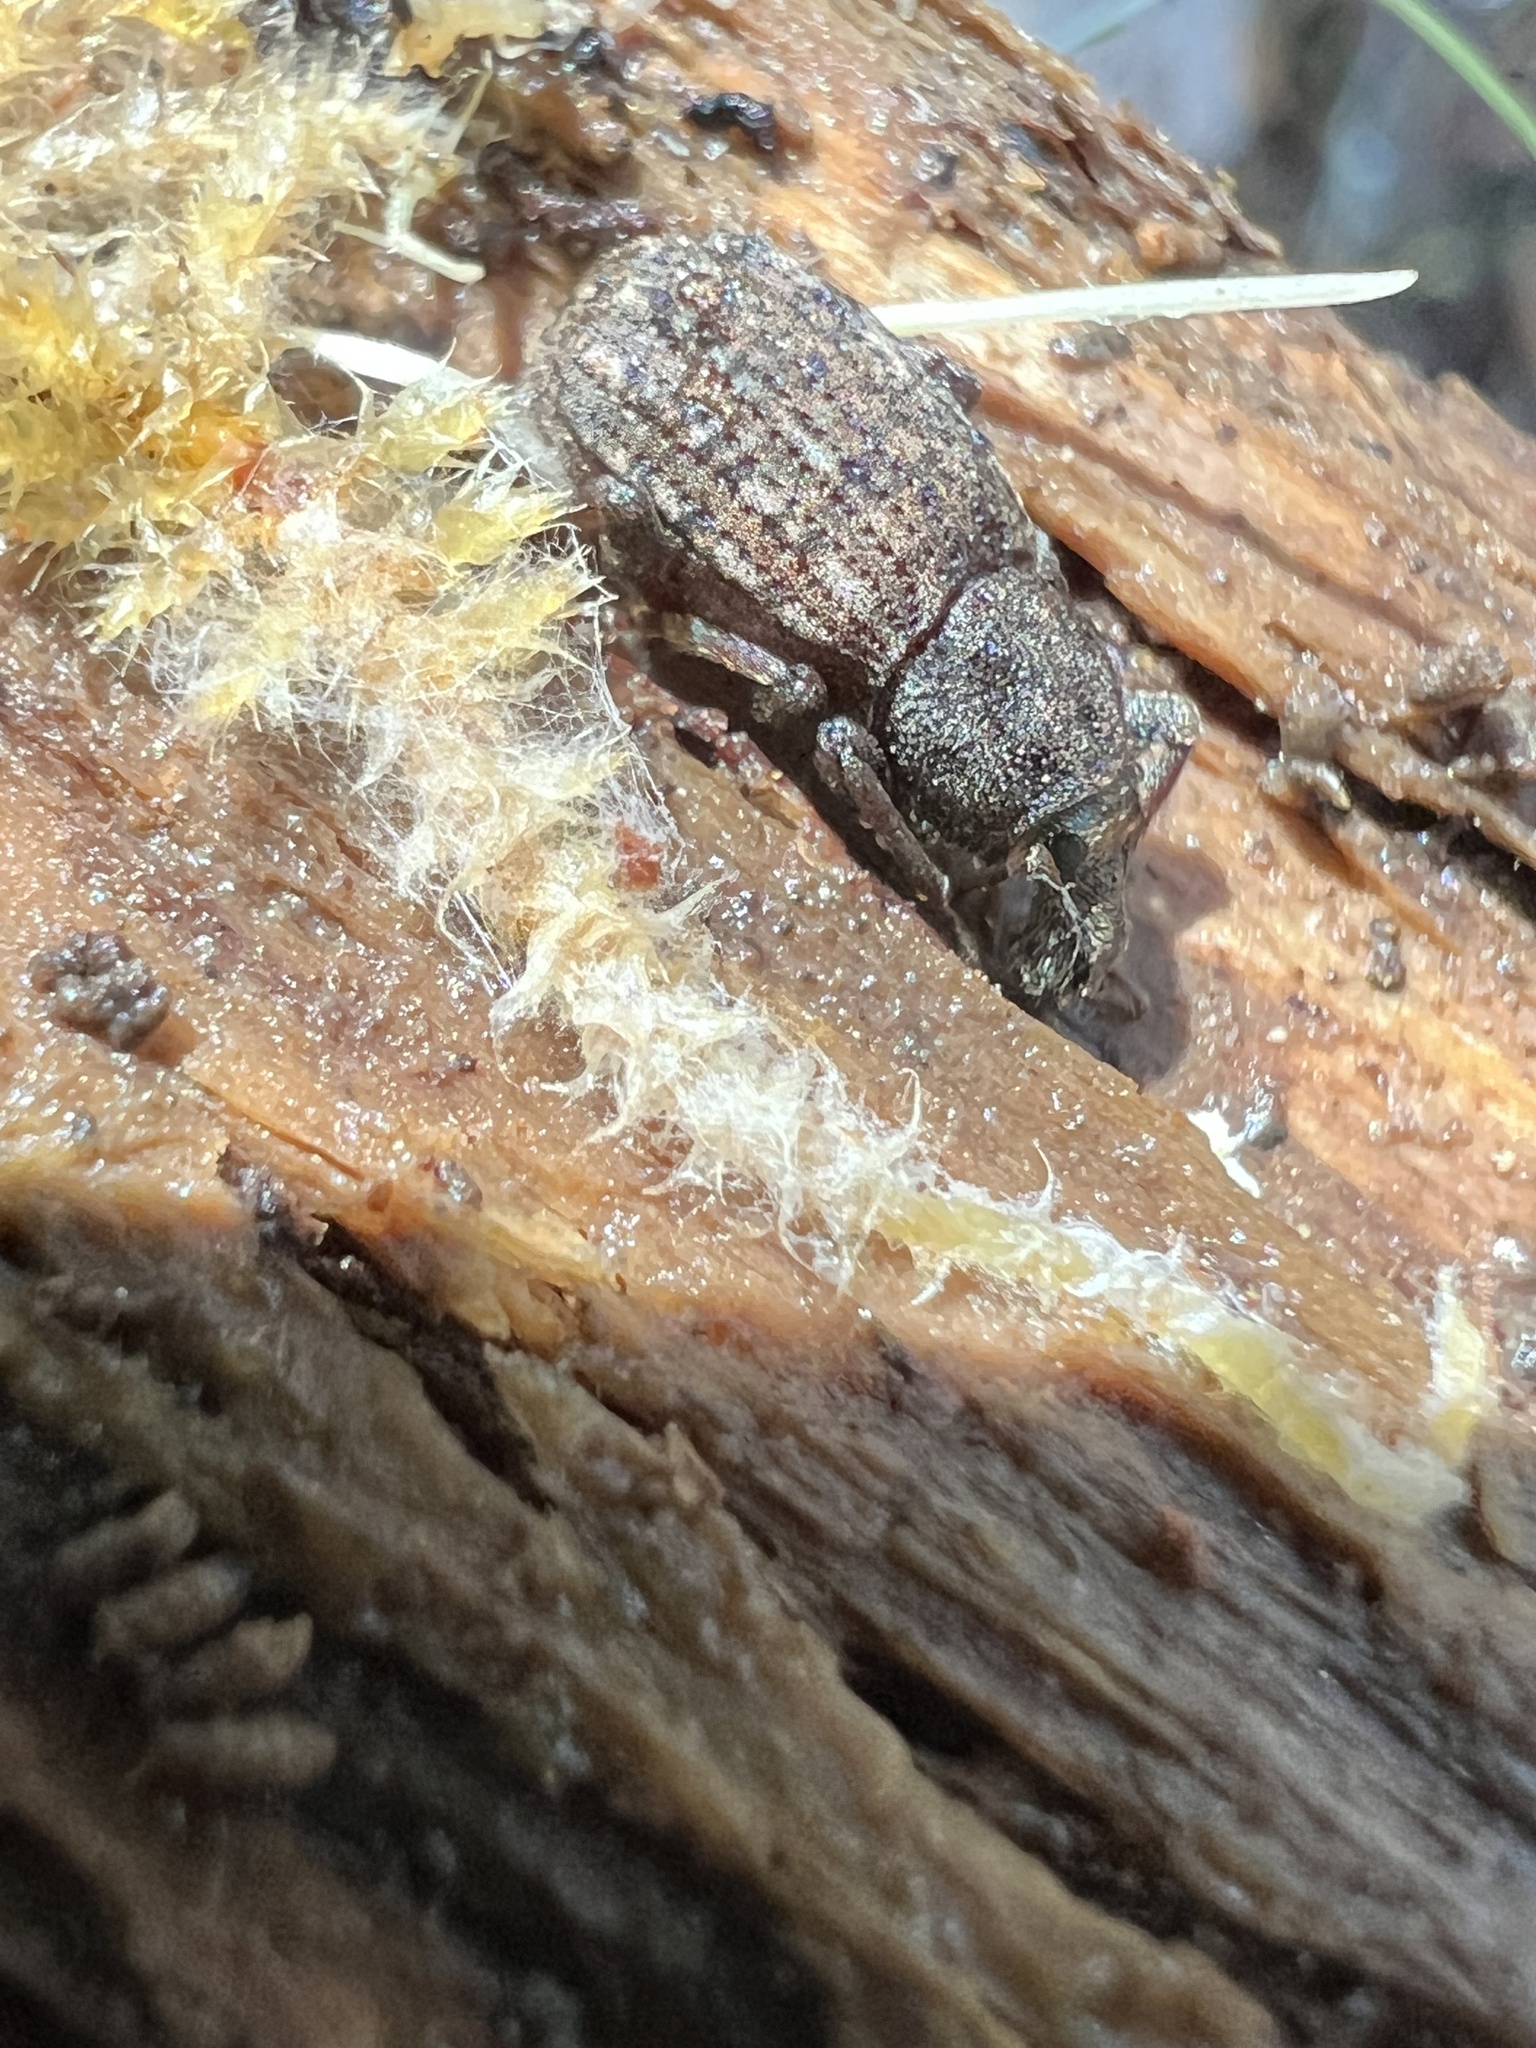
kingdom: Animalia
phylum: Arthropoda
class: Insecta
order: Coleoptera
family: Curculionidae
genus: Dyslobus
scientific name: Dyslobus granicollis
